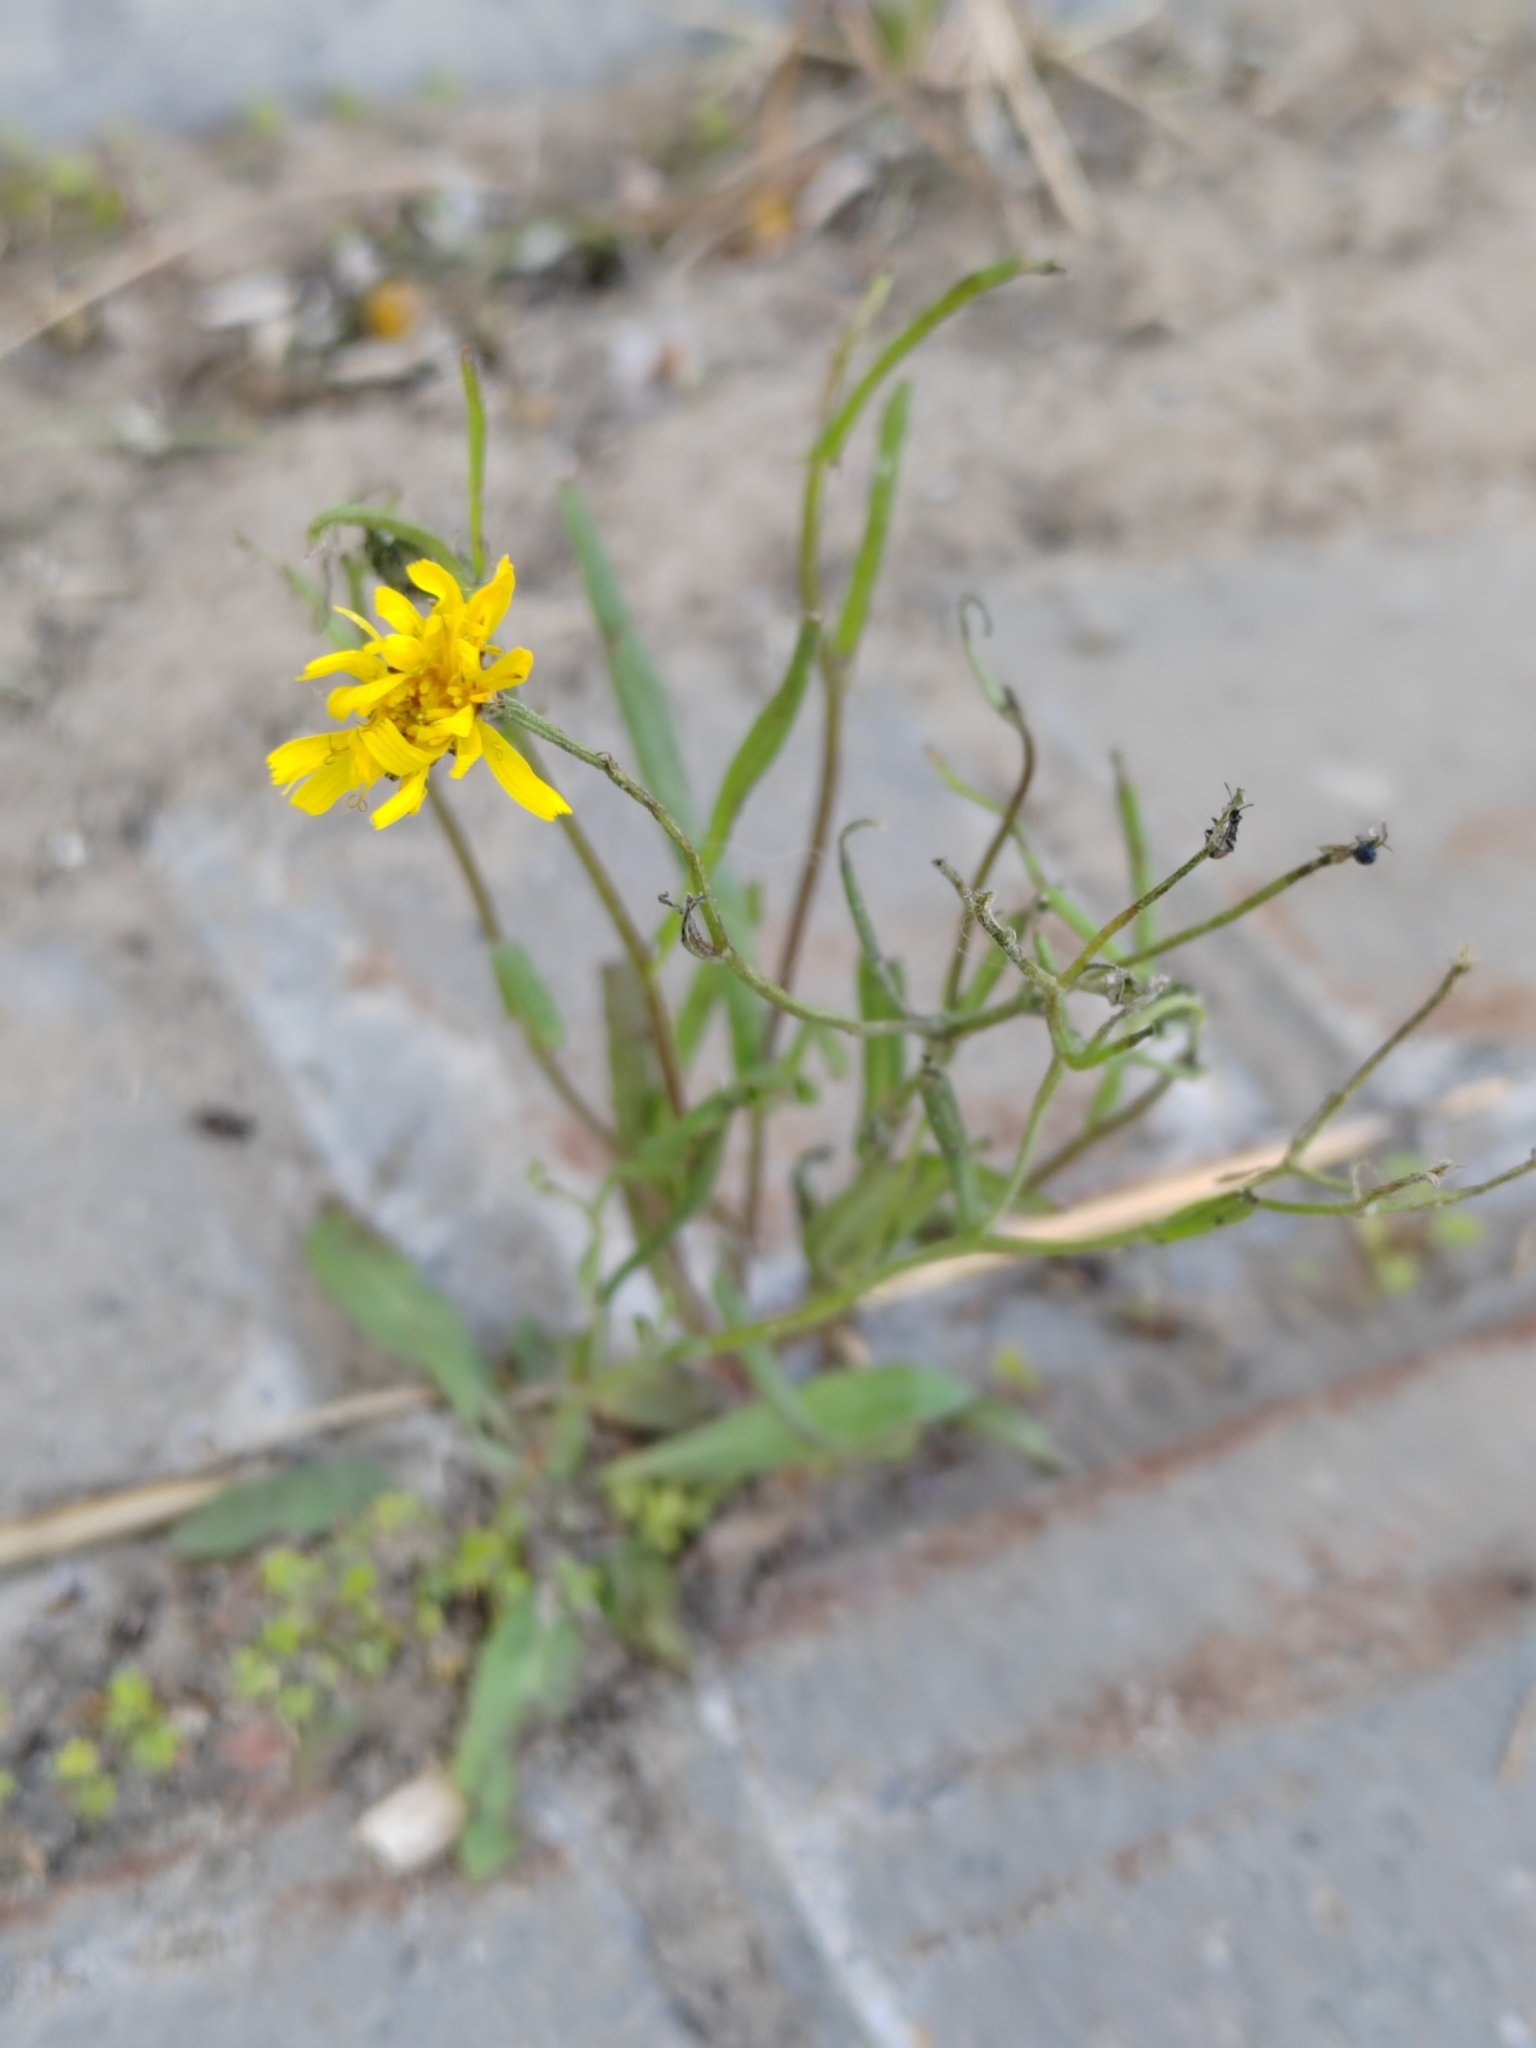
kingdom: Plantae
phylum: Tracheophyta
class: Magnoliopsida
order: Asterales
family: Asteraceae
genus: Crepis
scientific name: Crepis tectorum
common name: Narrow-leaved hawk's-beard
